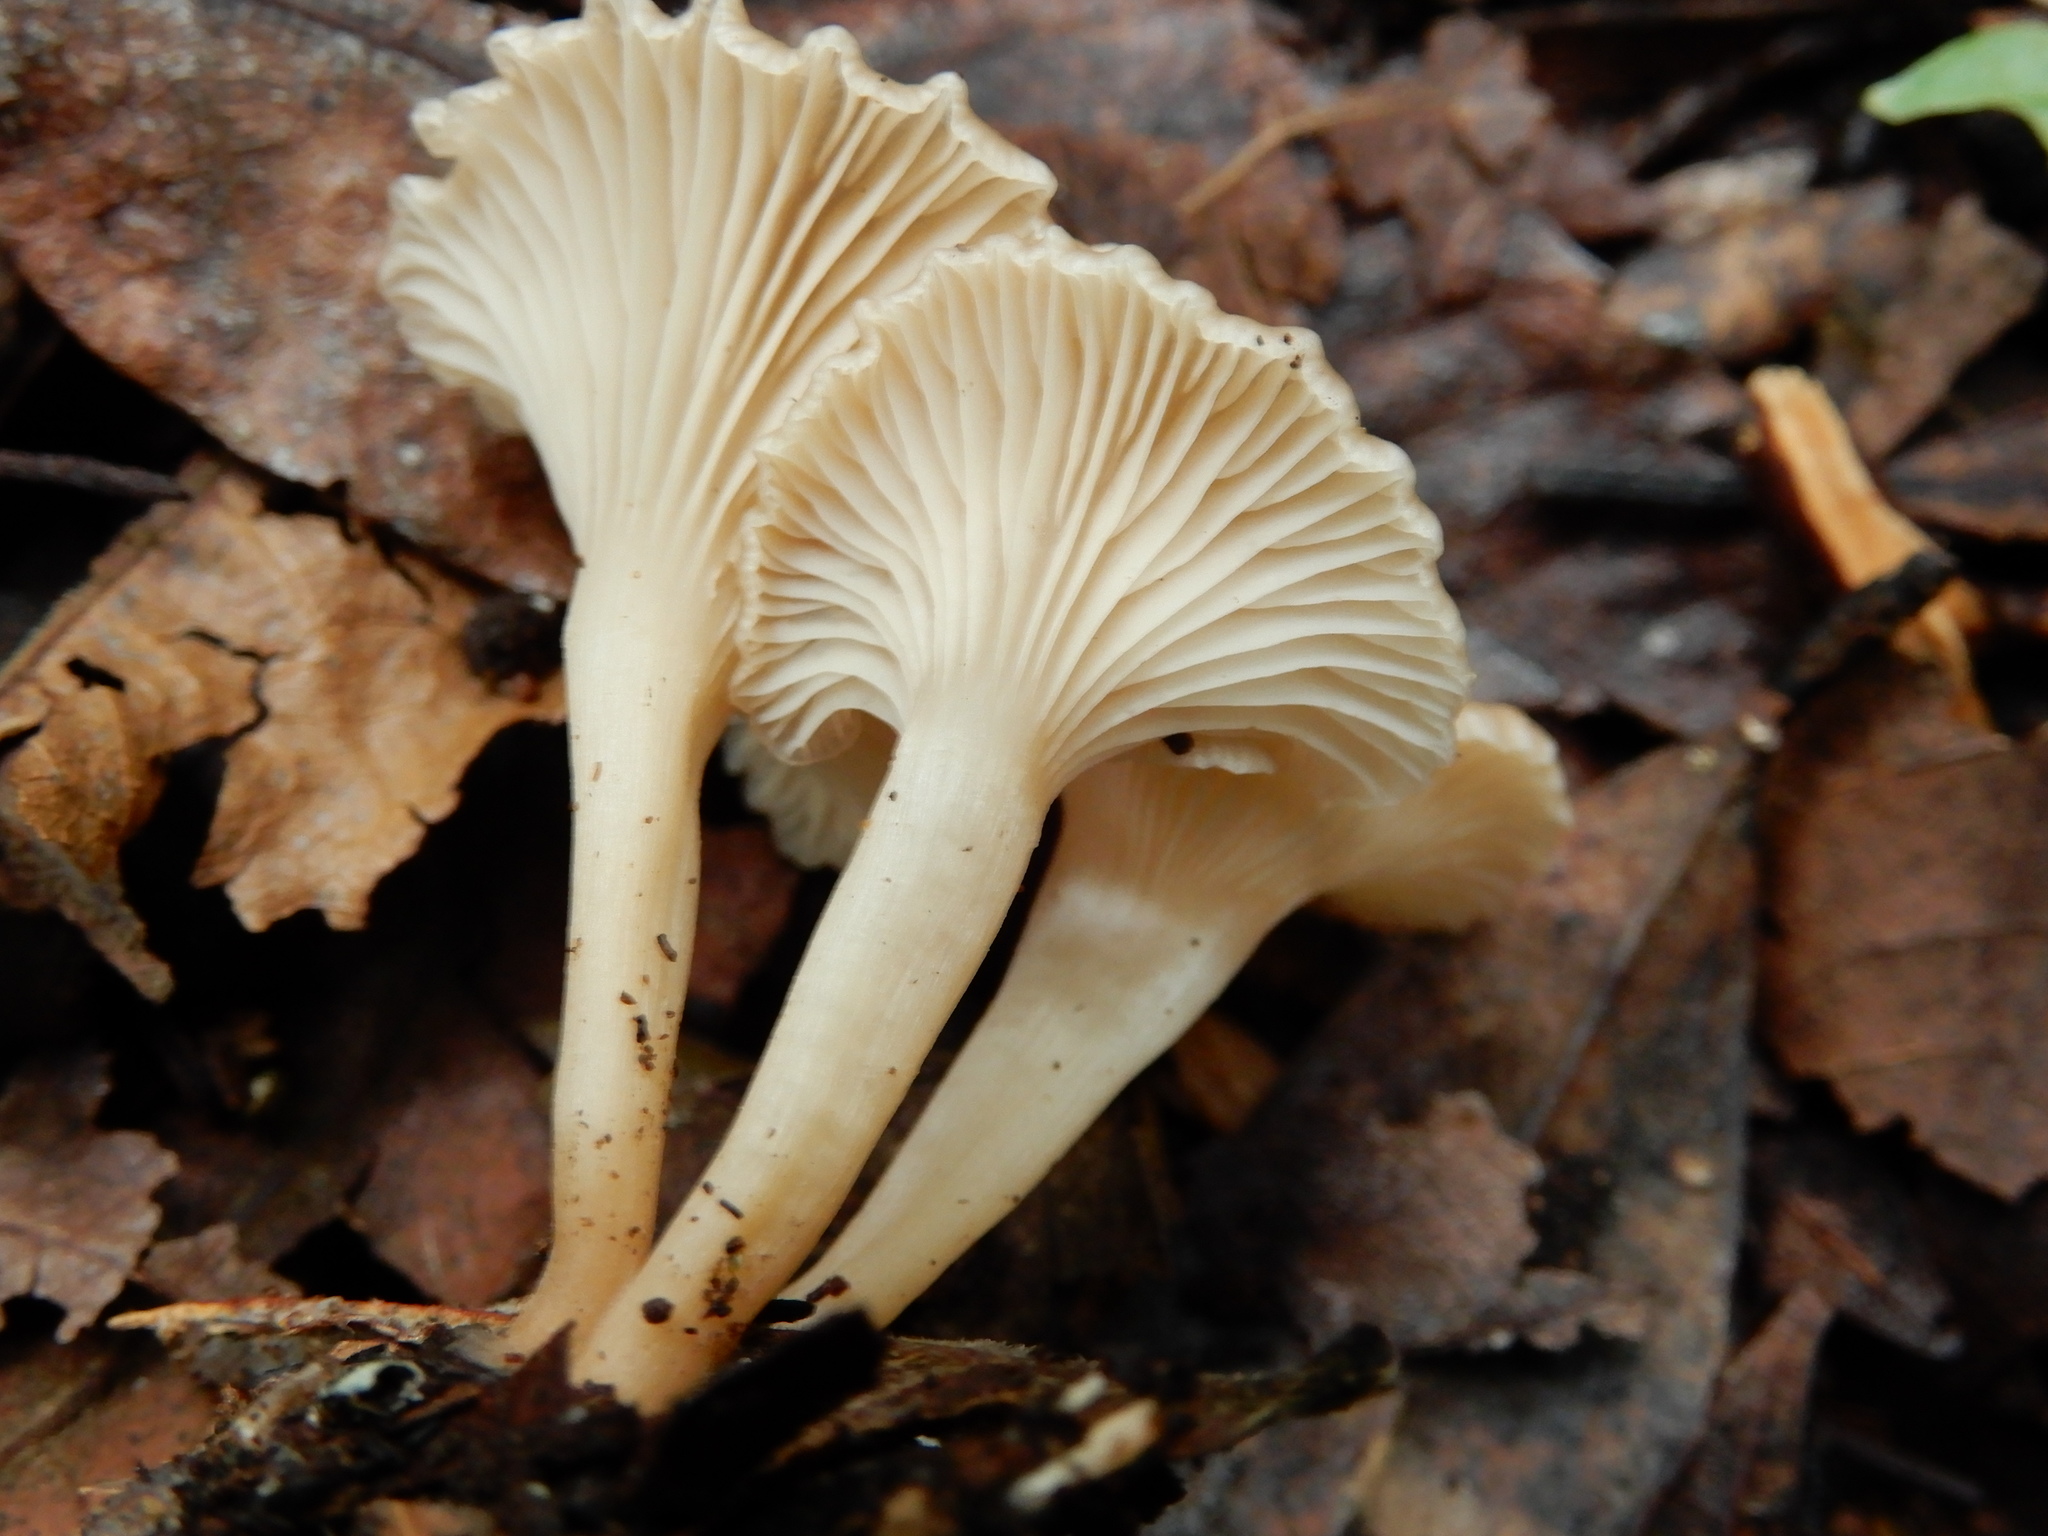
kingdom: Fungi
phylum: Basidiomycota
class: Agaricomycetes
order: Agaricales
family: Tricholomataceae
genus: Singerocybe
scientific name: Singerocybe clitocyboides
